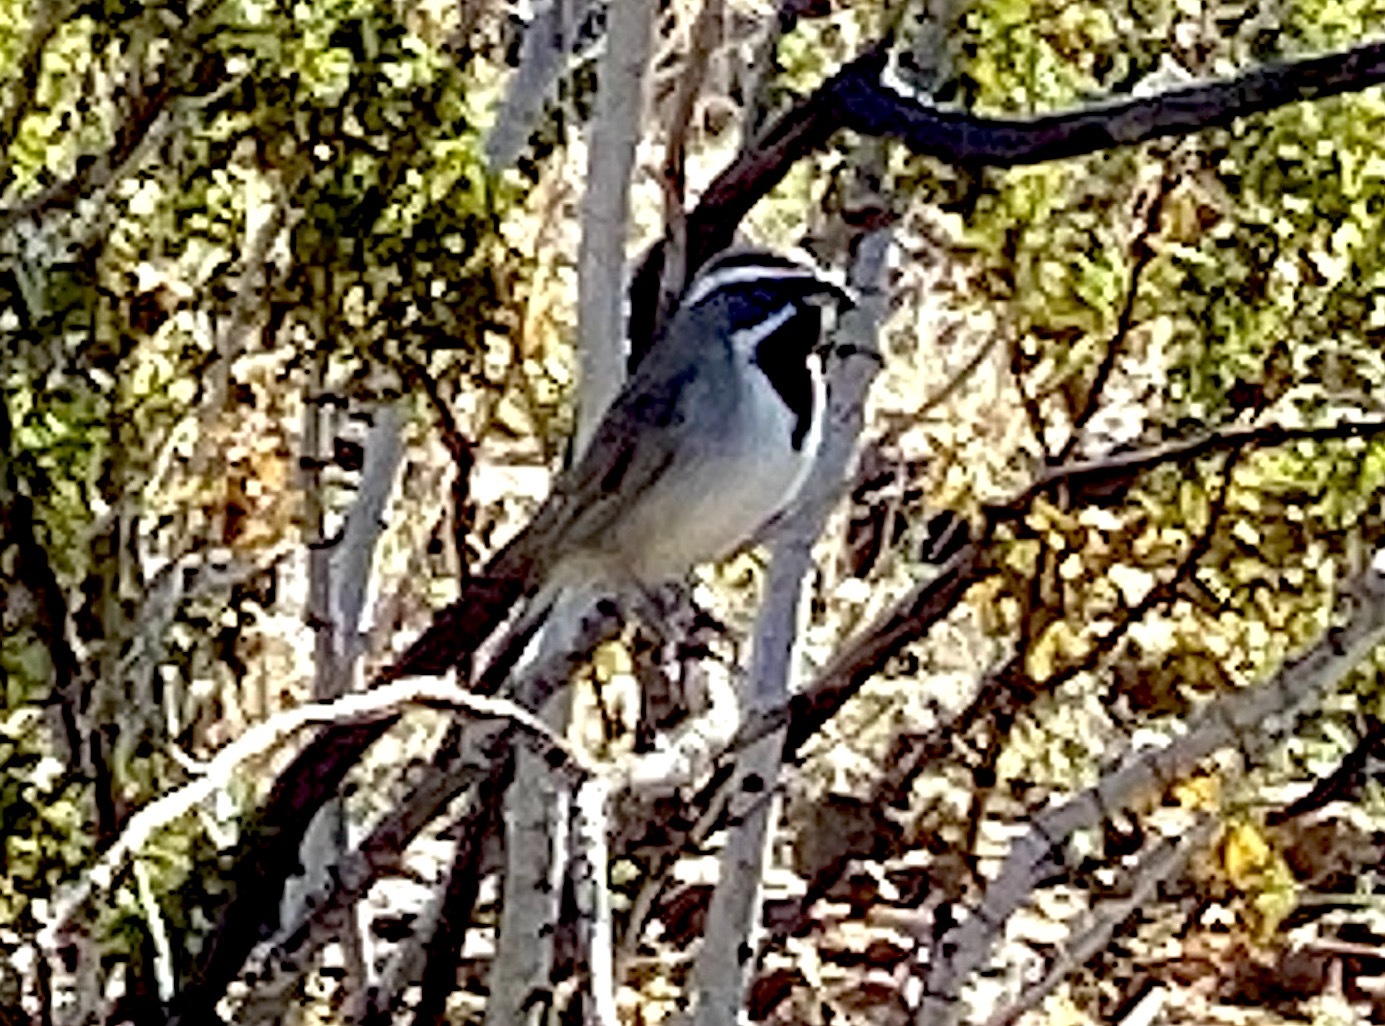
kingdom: Animalia
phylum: Chordata
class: Aves
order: Passeriformes
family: Passerellidae
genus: Amphispiza
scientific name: Amphispiza bilineata
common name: Black-throated sparrow
